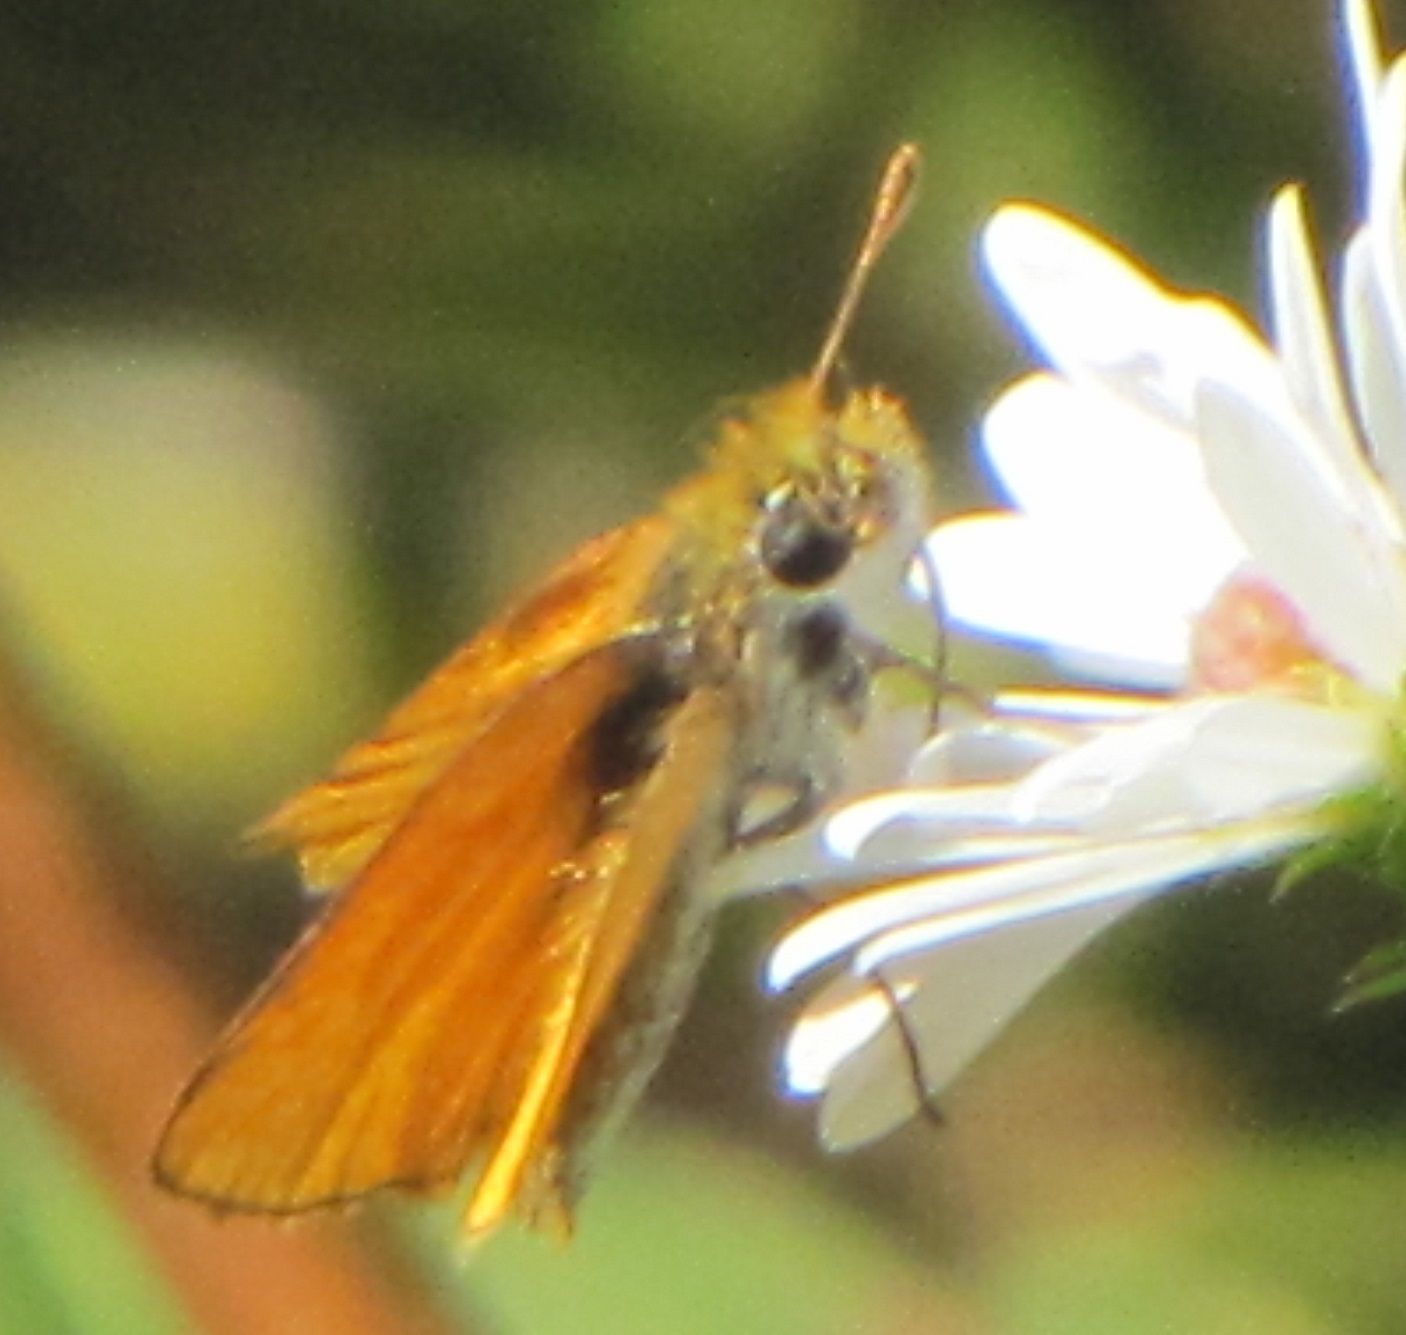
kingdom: Animalia
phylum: Arthropoda
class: Insecta
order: Lepidoptera
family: Hesperiidae
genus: Copaeodes
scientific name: Copaeodes minima
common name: Southern skipperling
